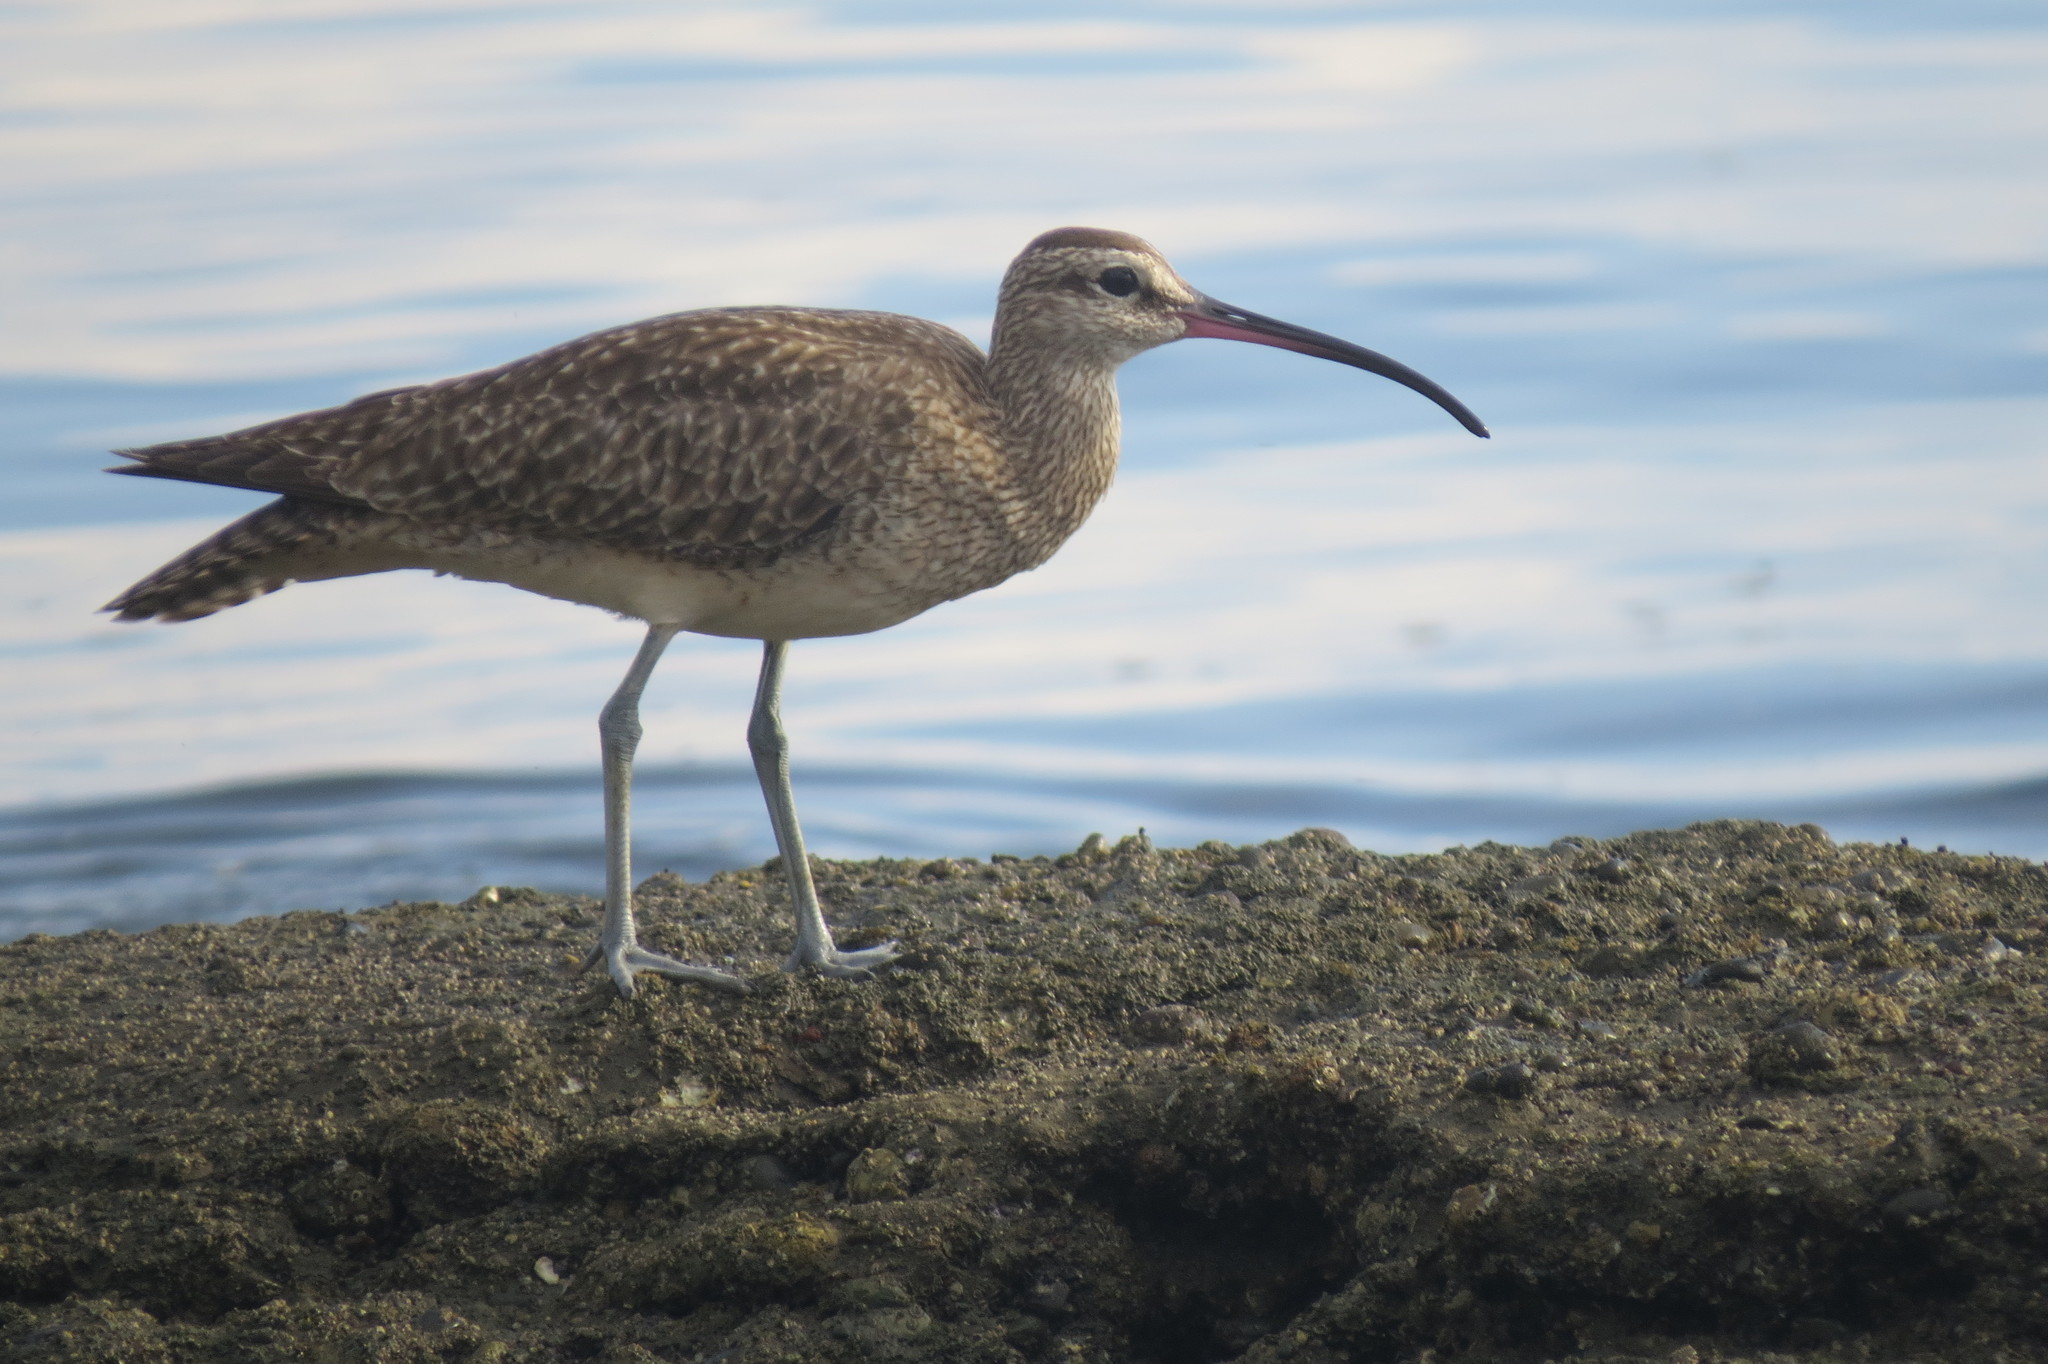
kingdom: Animalia
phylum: Chordata
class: Aves
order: Charadriiformes
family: Scolopacidae
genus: Numenius
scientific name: Numenius phaeopus
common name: Whimbrel
